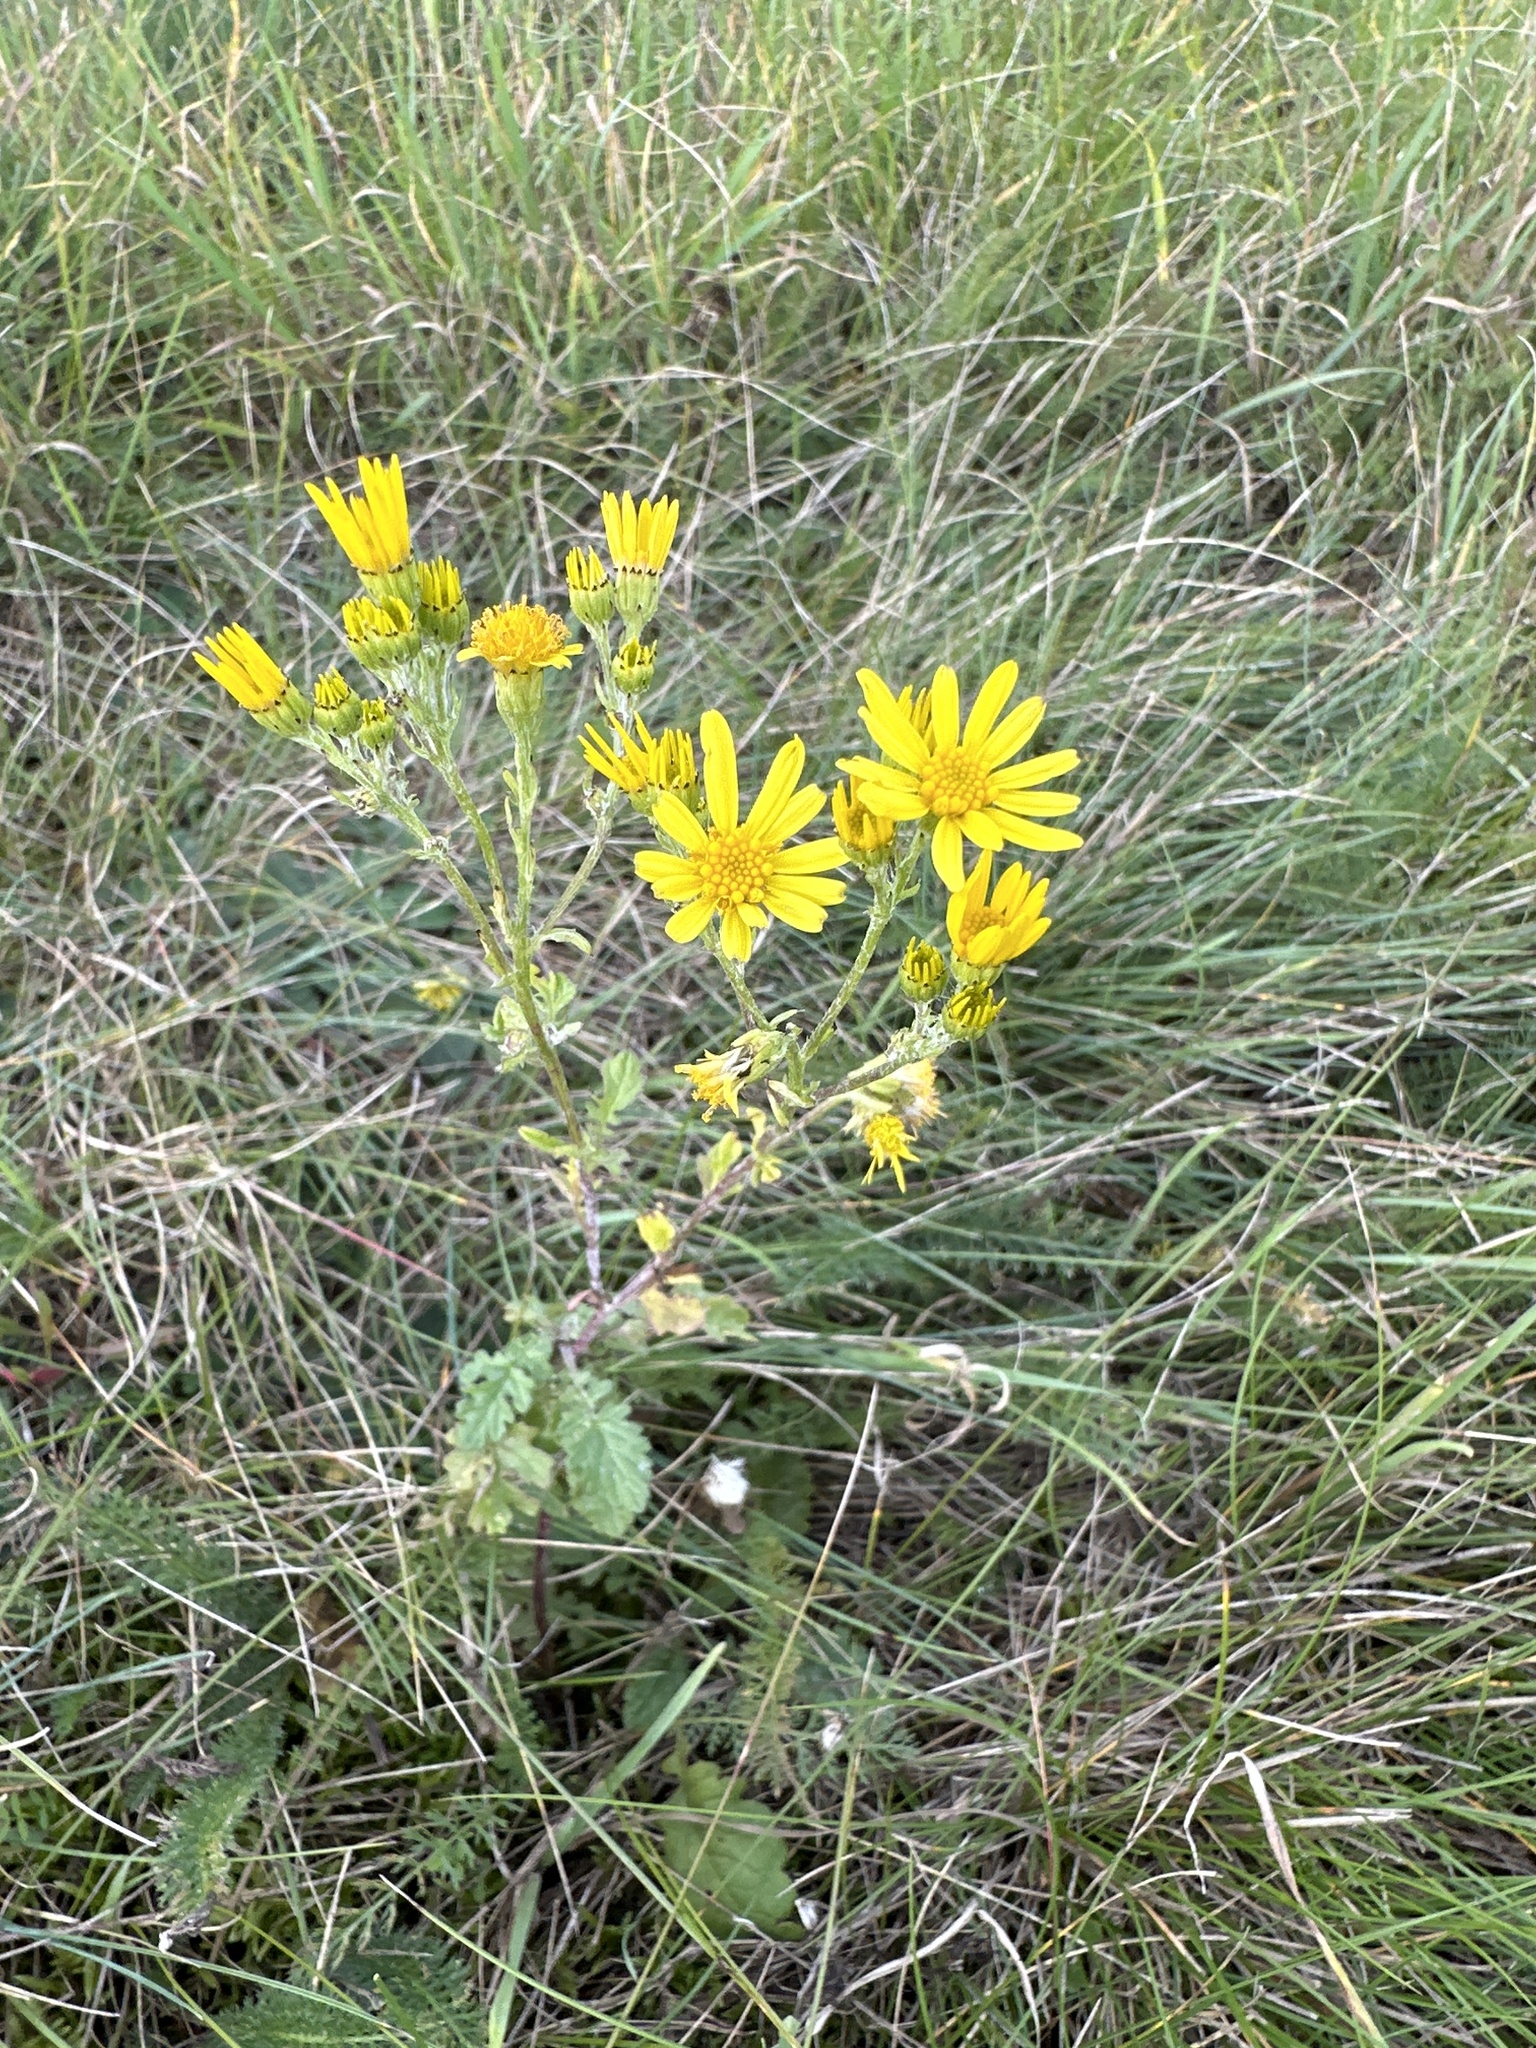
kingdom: Plantae
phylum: Tracheophyta
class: Magnoliopsida
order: Asterales
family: Asteraceae
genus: Jacobaea
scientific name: Jacobaea vulgaris
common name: Stinking willie
